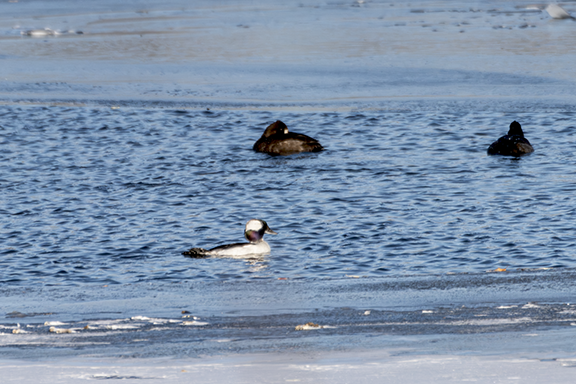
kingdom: Animalia
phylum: Chordata
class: Aves
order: Anseriformes
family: Anatidae
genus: Bucephala
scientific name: Bucephala albeola
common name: Bufflehead
